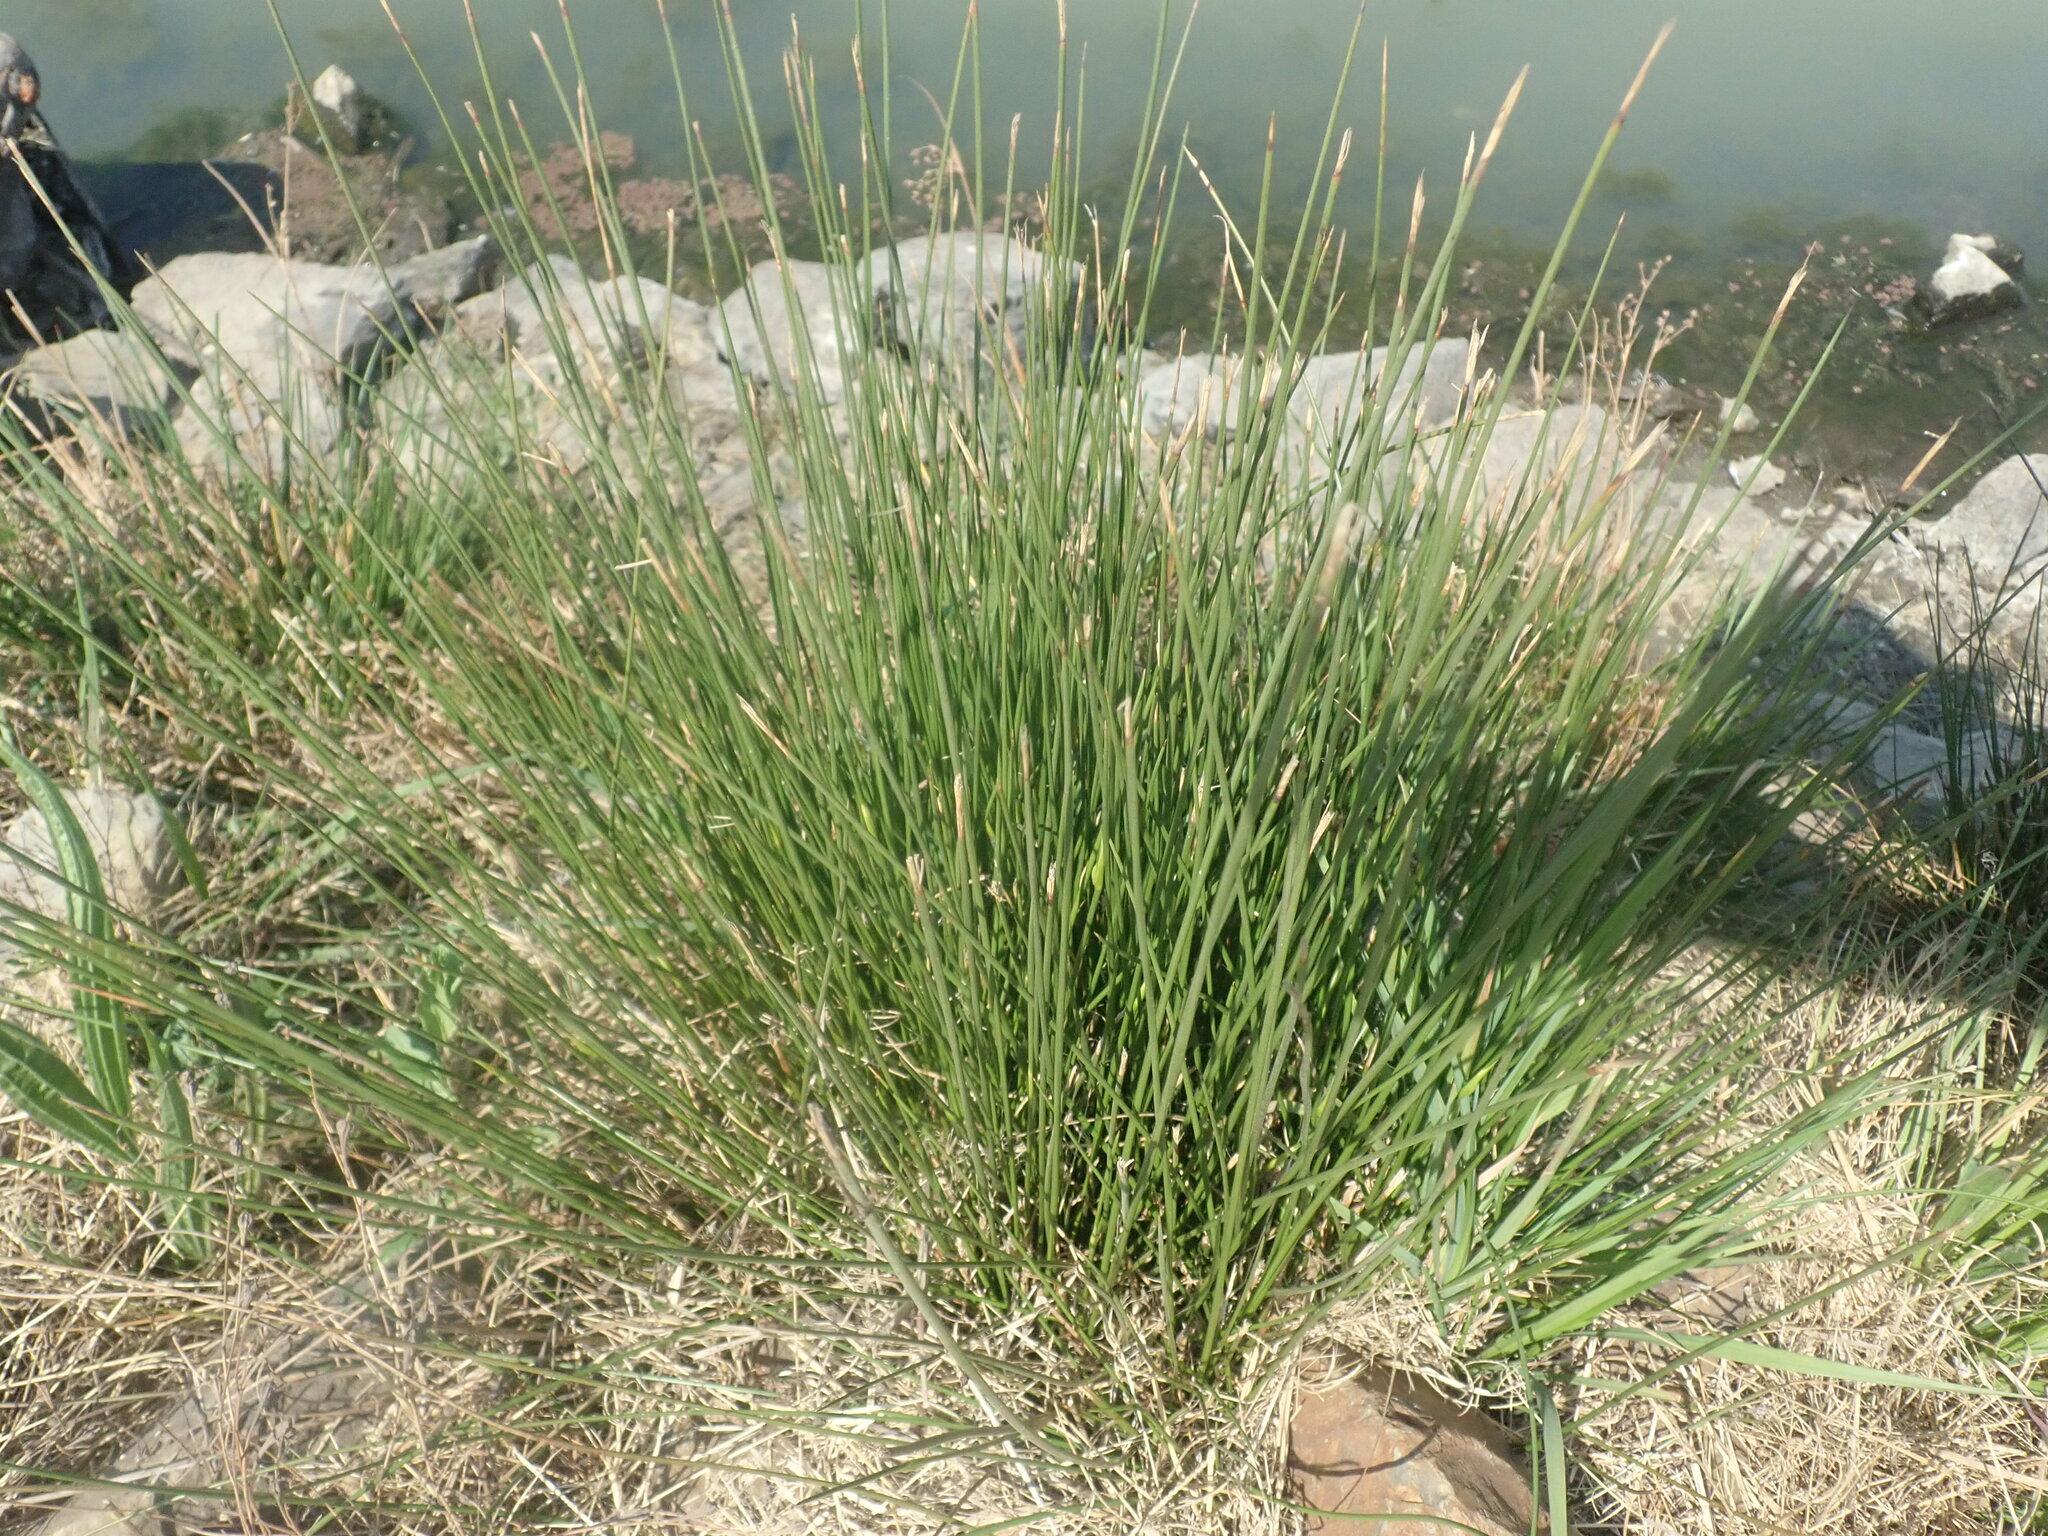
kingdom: Plantae
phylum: Tracheophyta
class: Liliopsida
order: Poales
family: Cyperaceae
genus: Eleocharis
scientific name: Eleocharis palustris
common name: Common spike-rush
